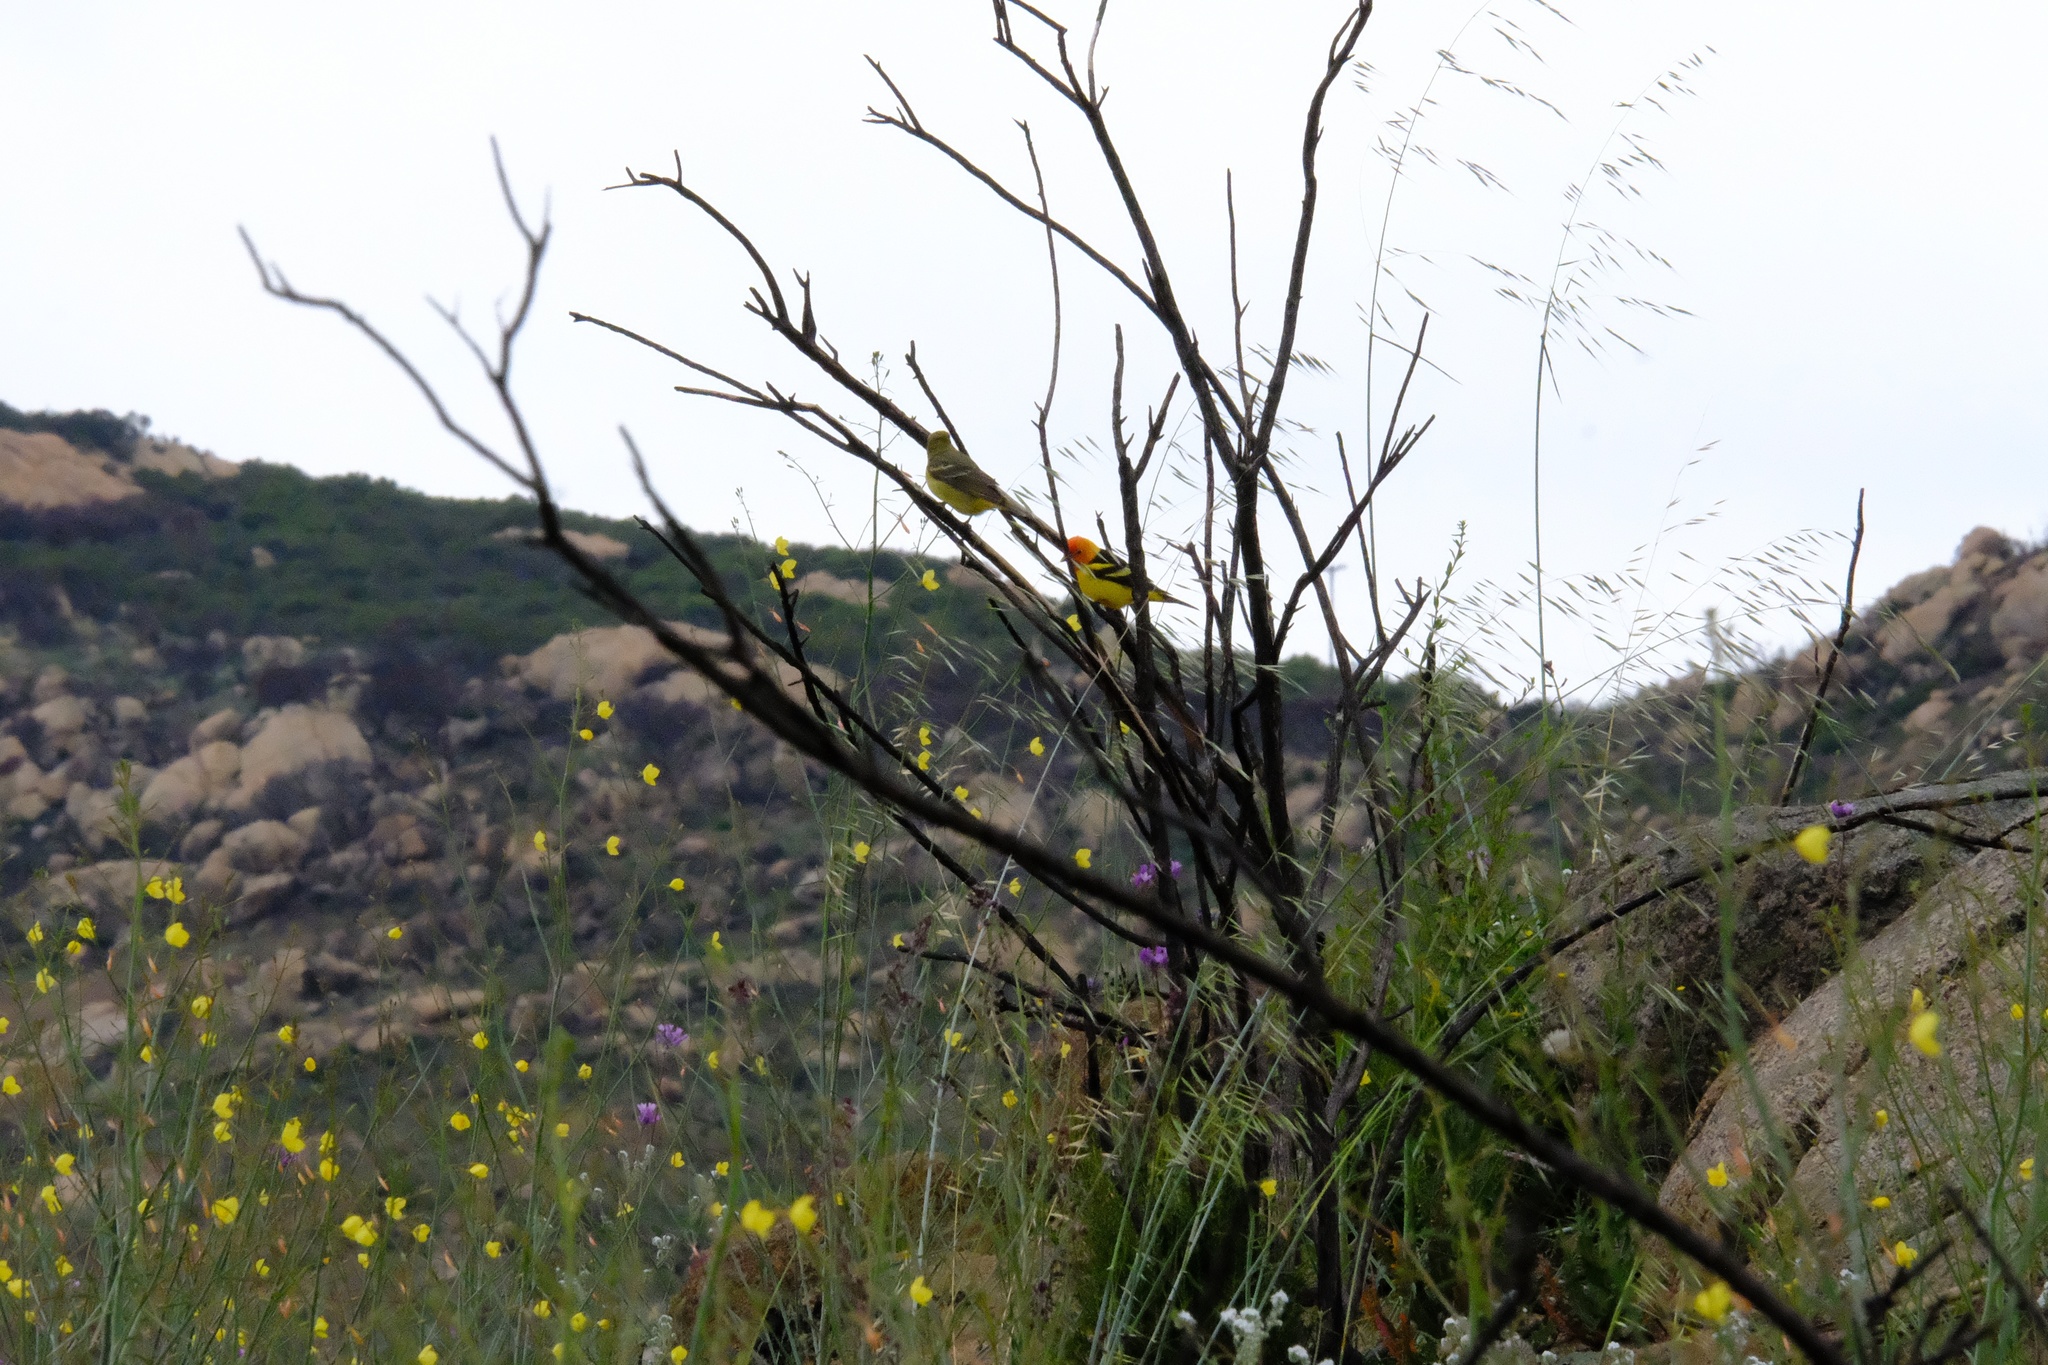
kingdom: Animalia
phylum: Chordata
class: Aves
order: Passeriformes
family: Cardinalidae
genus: Piranga
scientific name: Piranga ludoviciana
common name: Western tanager
